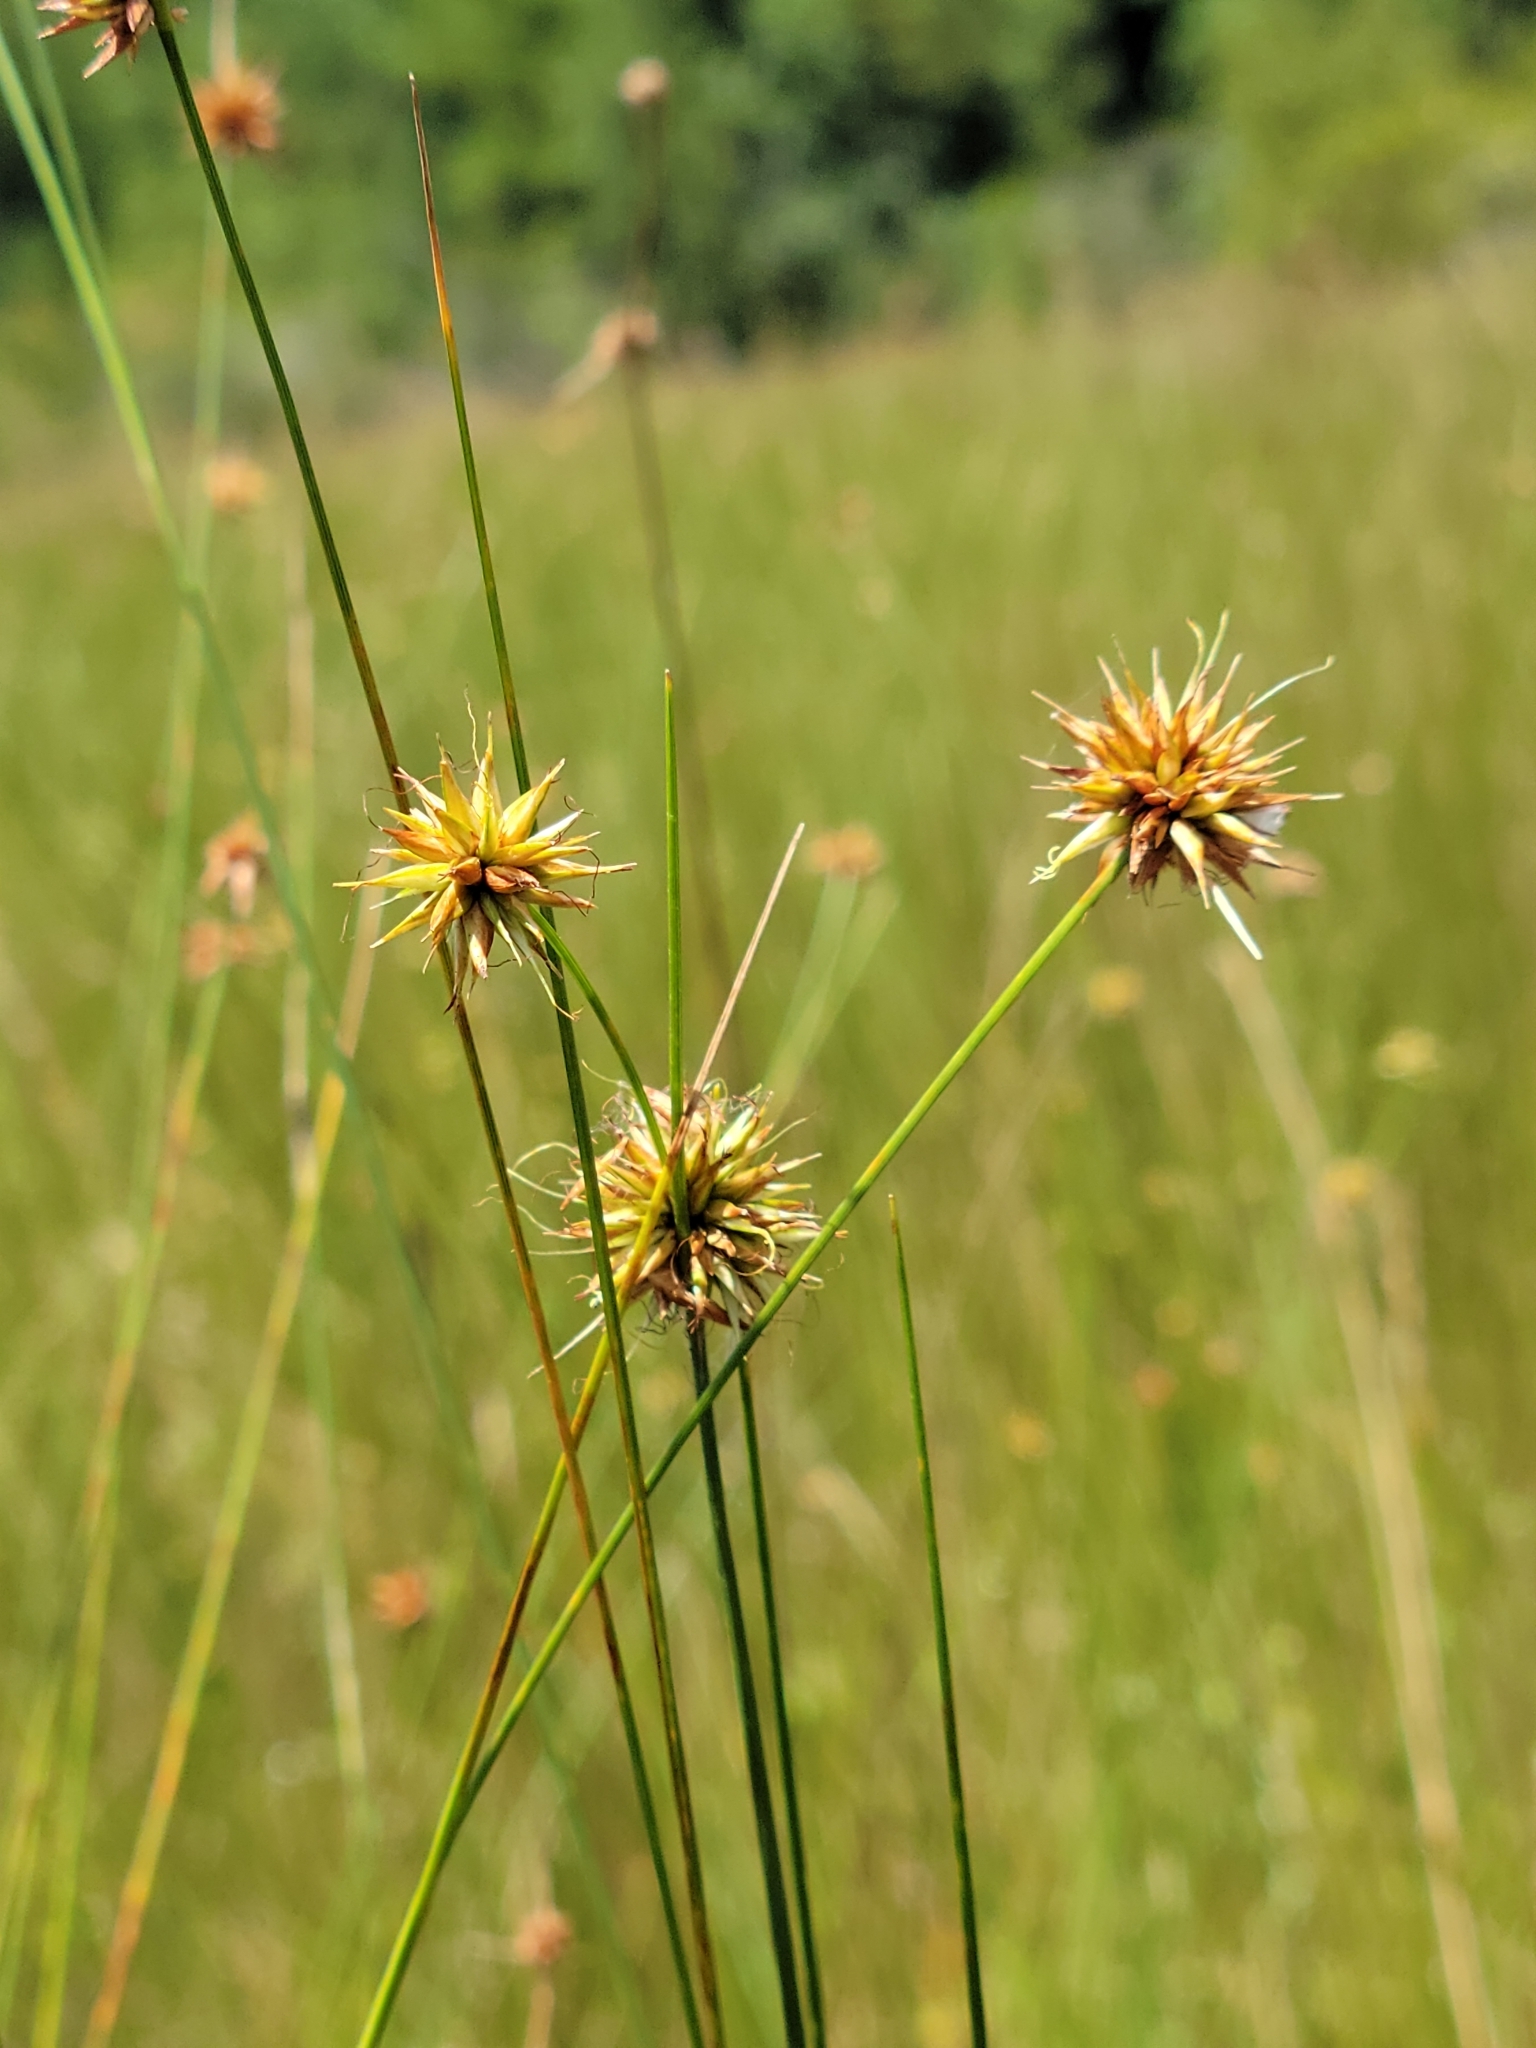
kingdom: Plantae
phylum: Tracheophyta
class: Liliopsida
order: Poales
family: Cyperaceae
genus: Rhynchospora
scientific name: Rhynchospora tracyi
